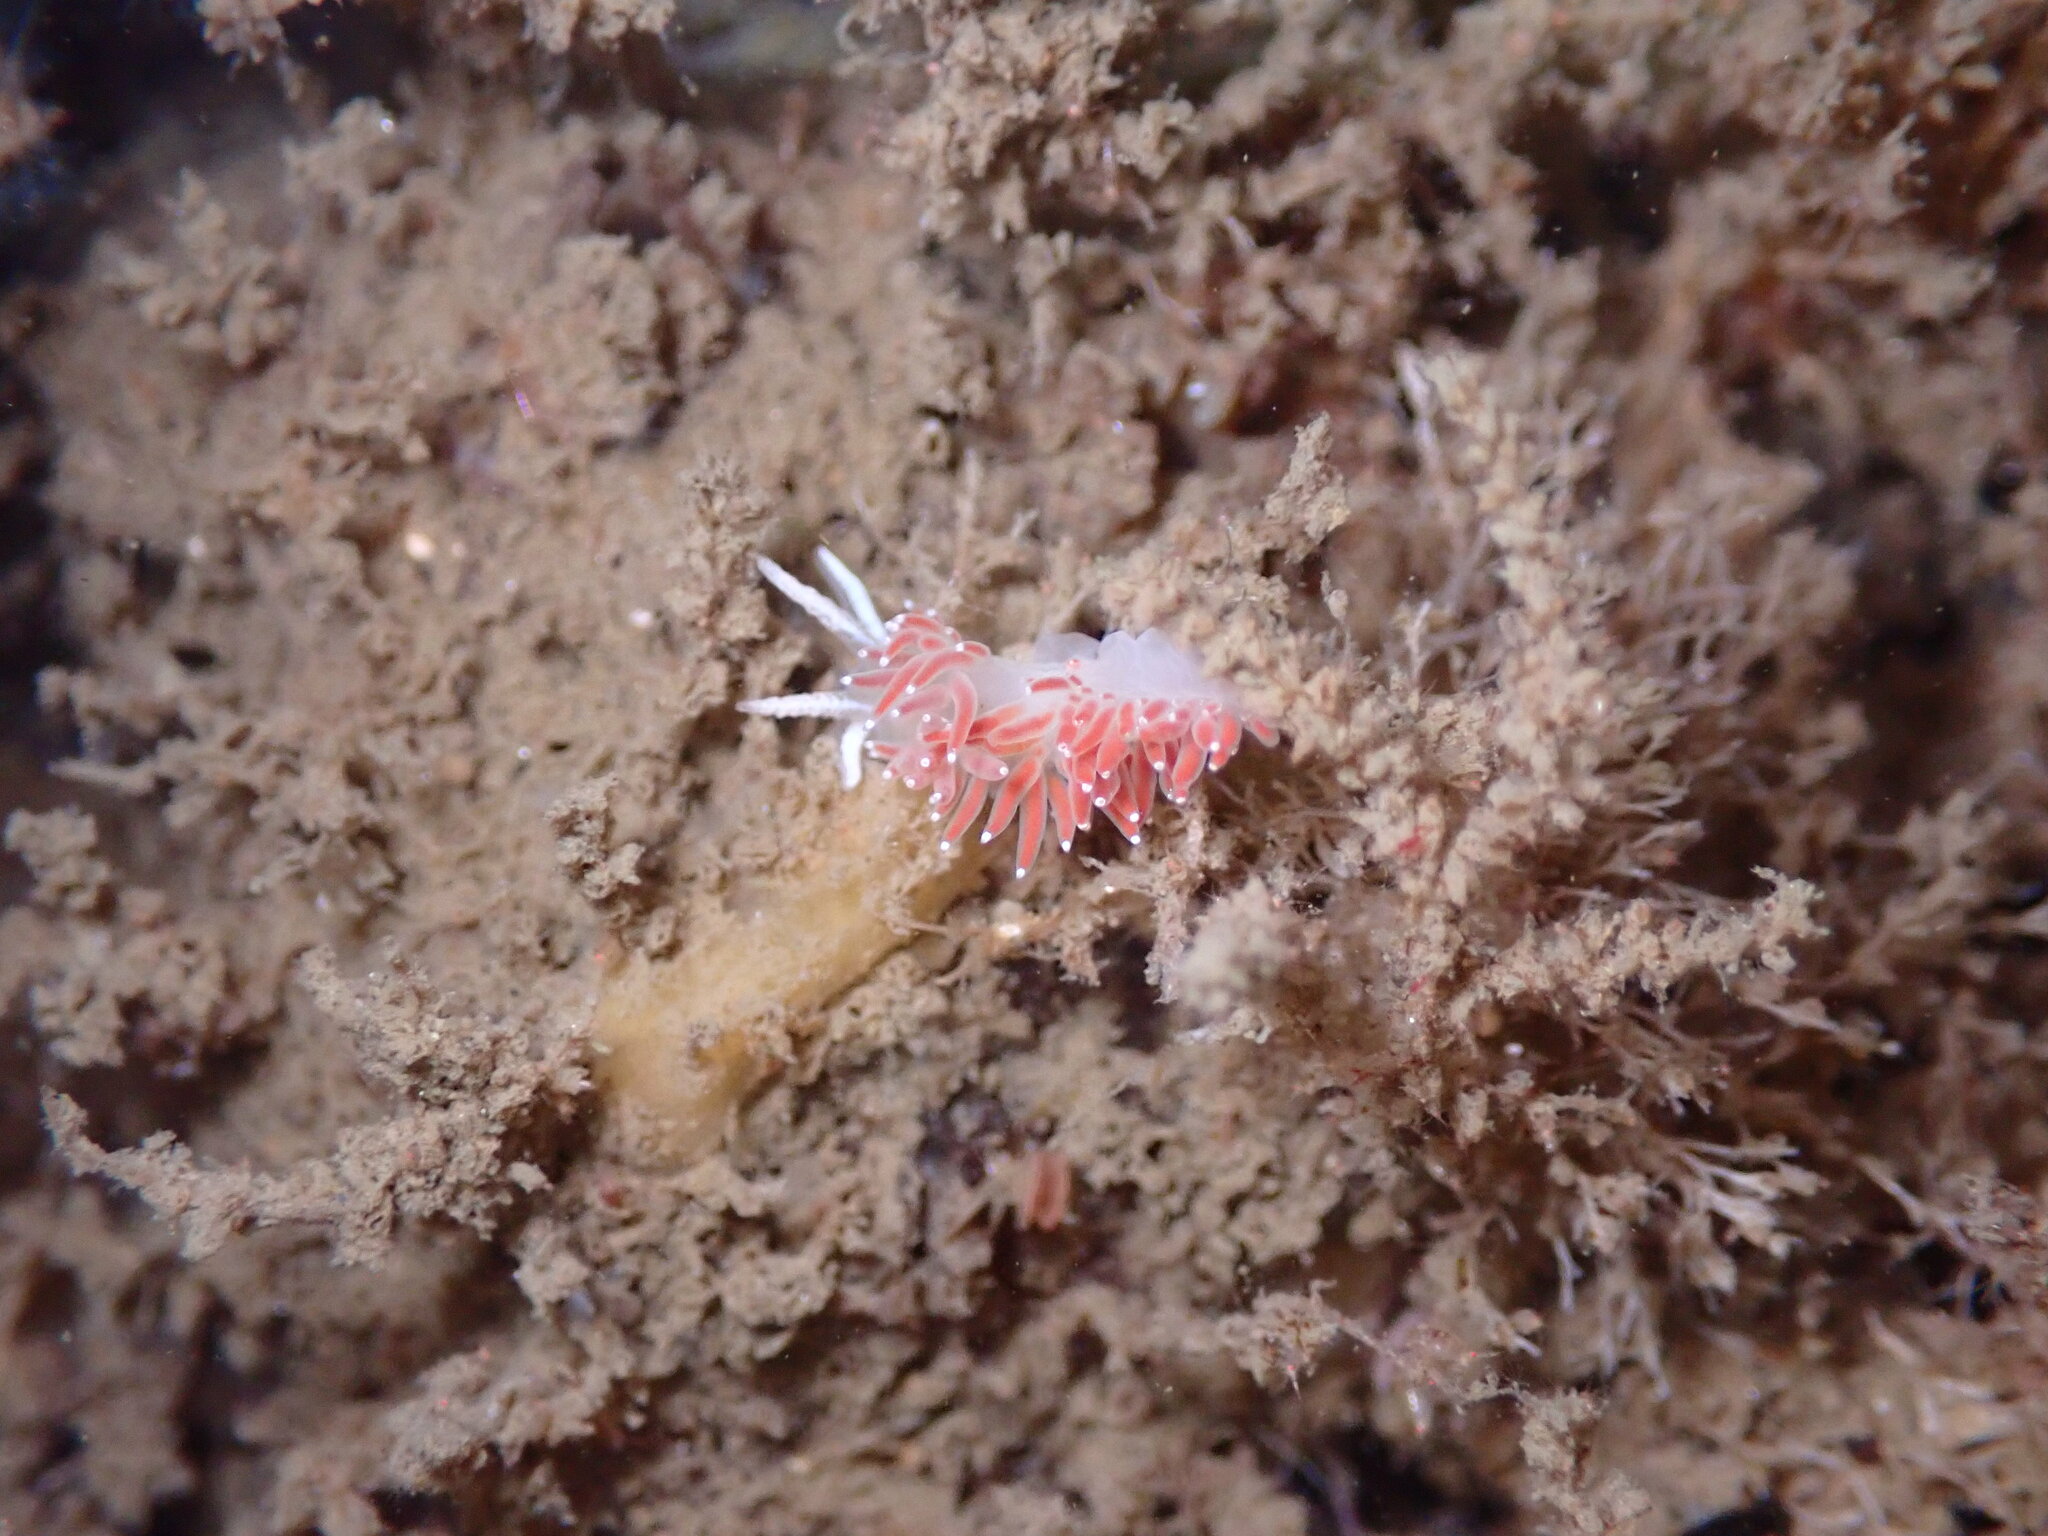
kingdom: Animalia
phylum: Mollusca
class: Gastropoda
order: Nudibranchia
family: Coryphellidae
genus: Coryphella
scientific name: Coryphella verrucosa
